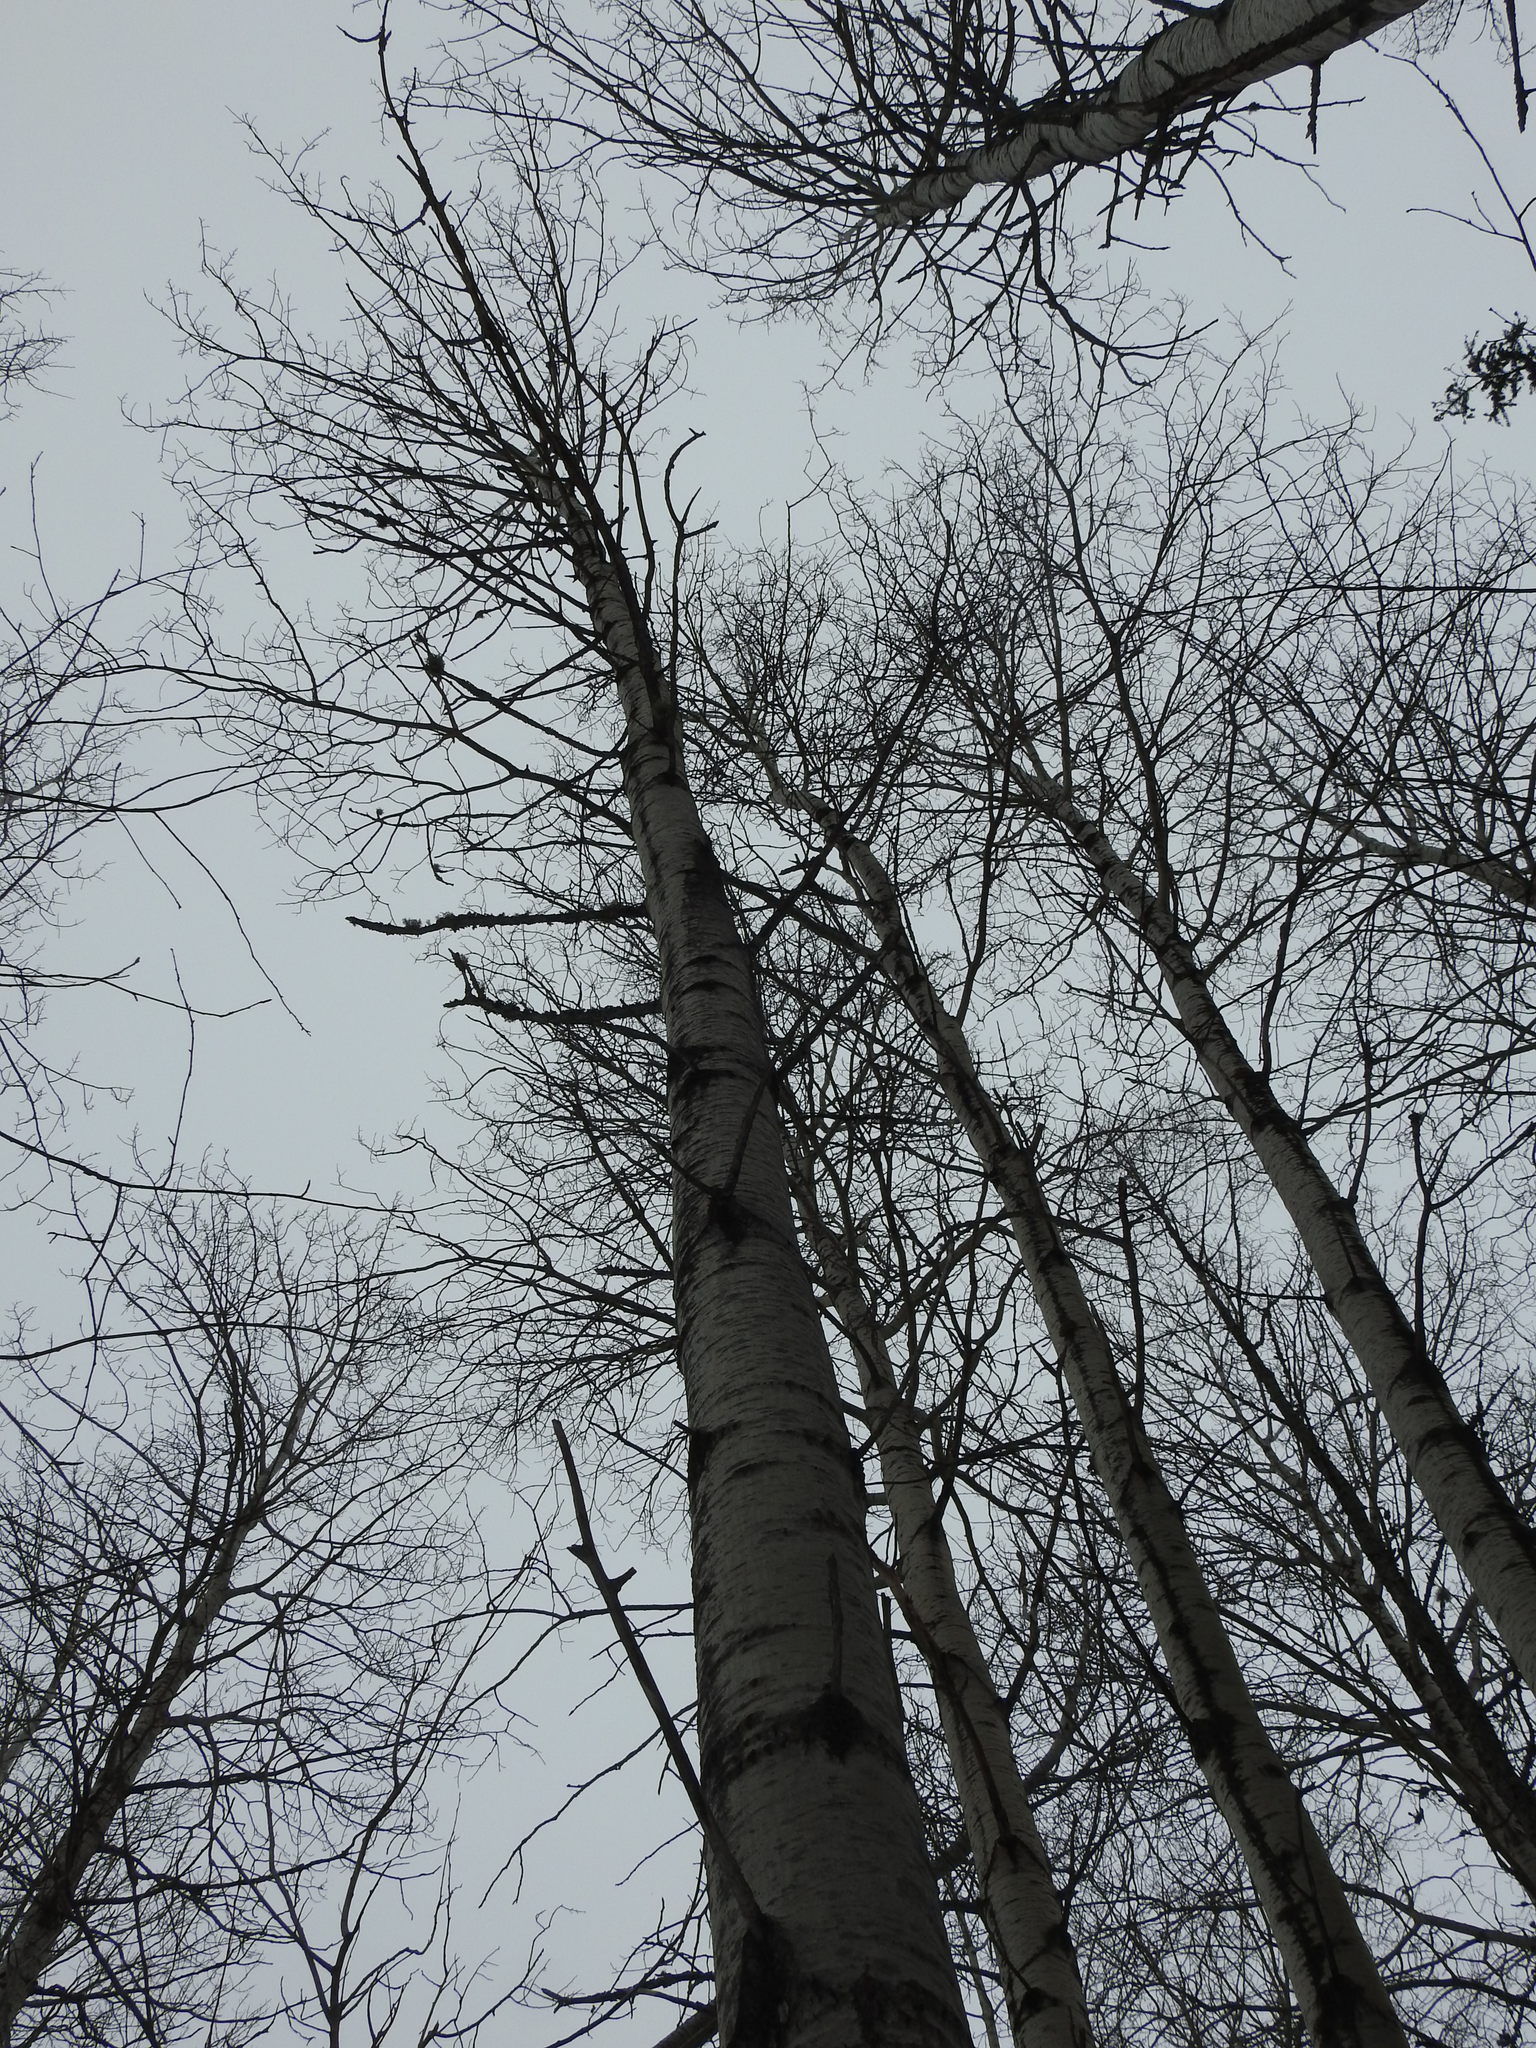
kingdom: Plantae
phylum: Tracheophyta
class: Magnoliopsida
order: Malpighiales
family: Salicaceae
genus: Populus
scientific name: Populus tremuloides
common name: Quaking aspen
